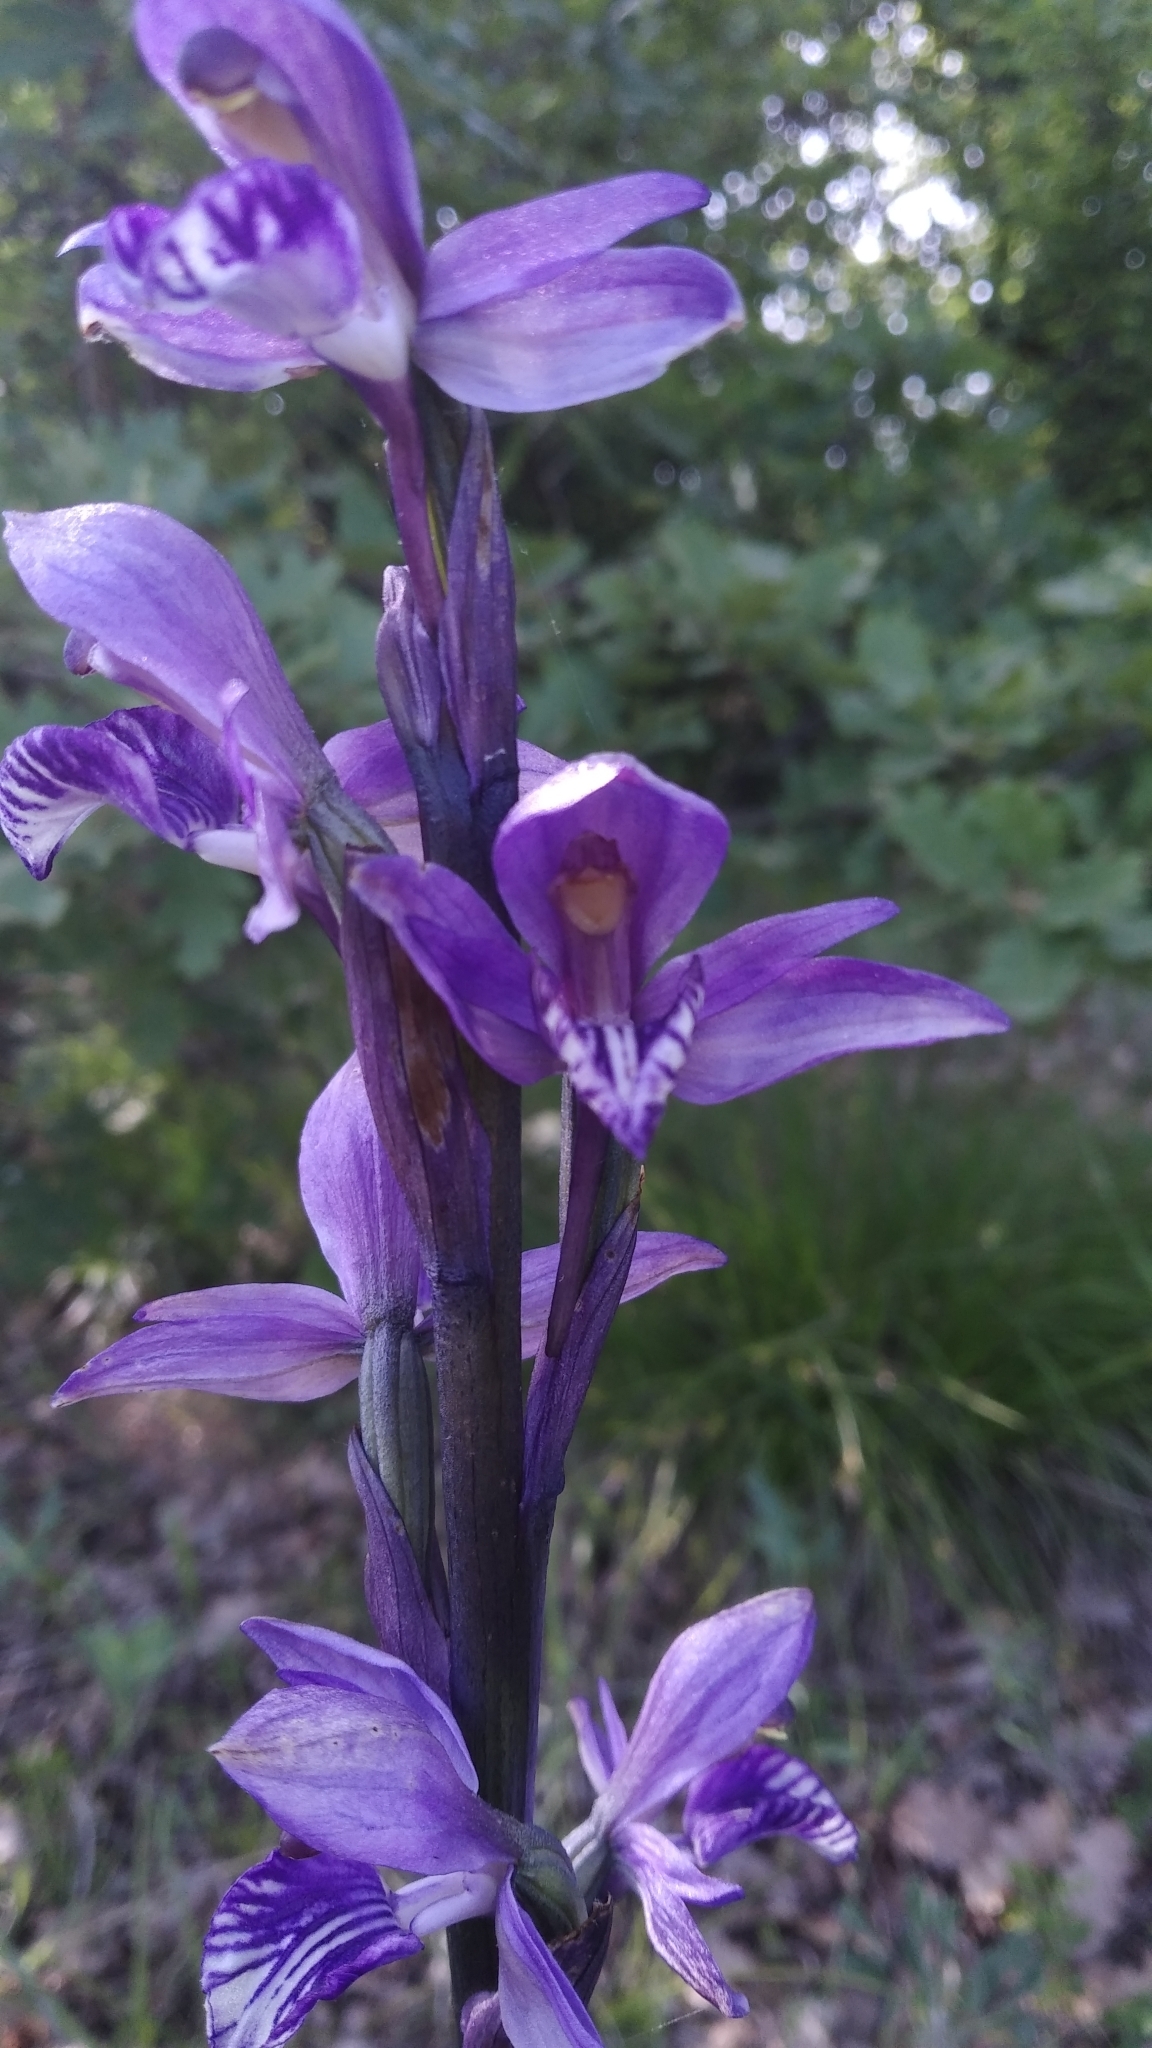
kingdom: Plantae
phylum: Tracheophyta
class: Liliopsida
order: Asparagales
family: Orchidaceae
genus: Limodorum
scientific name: Limodorum abortivum
